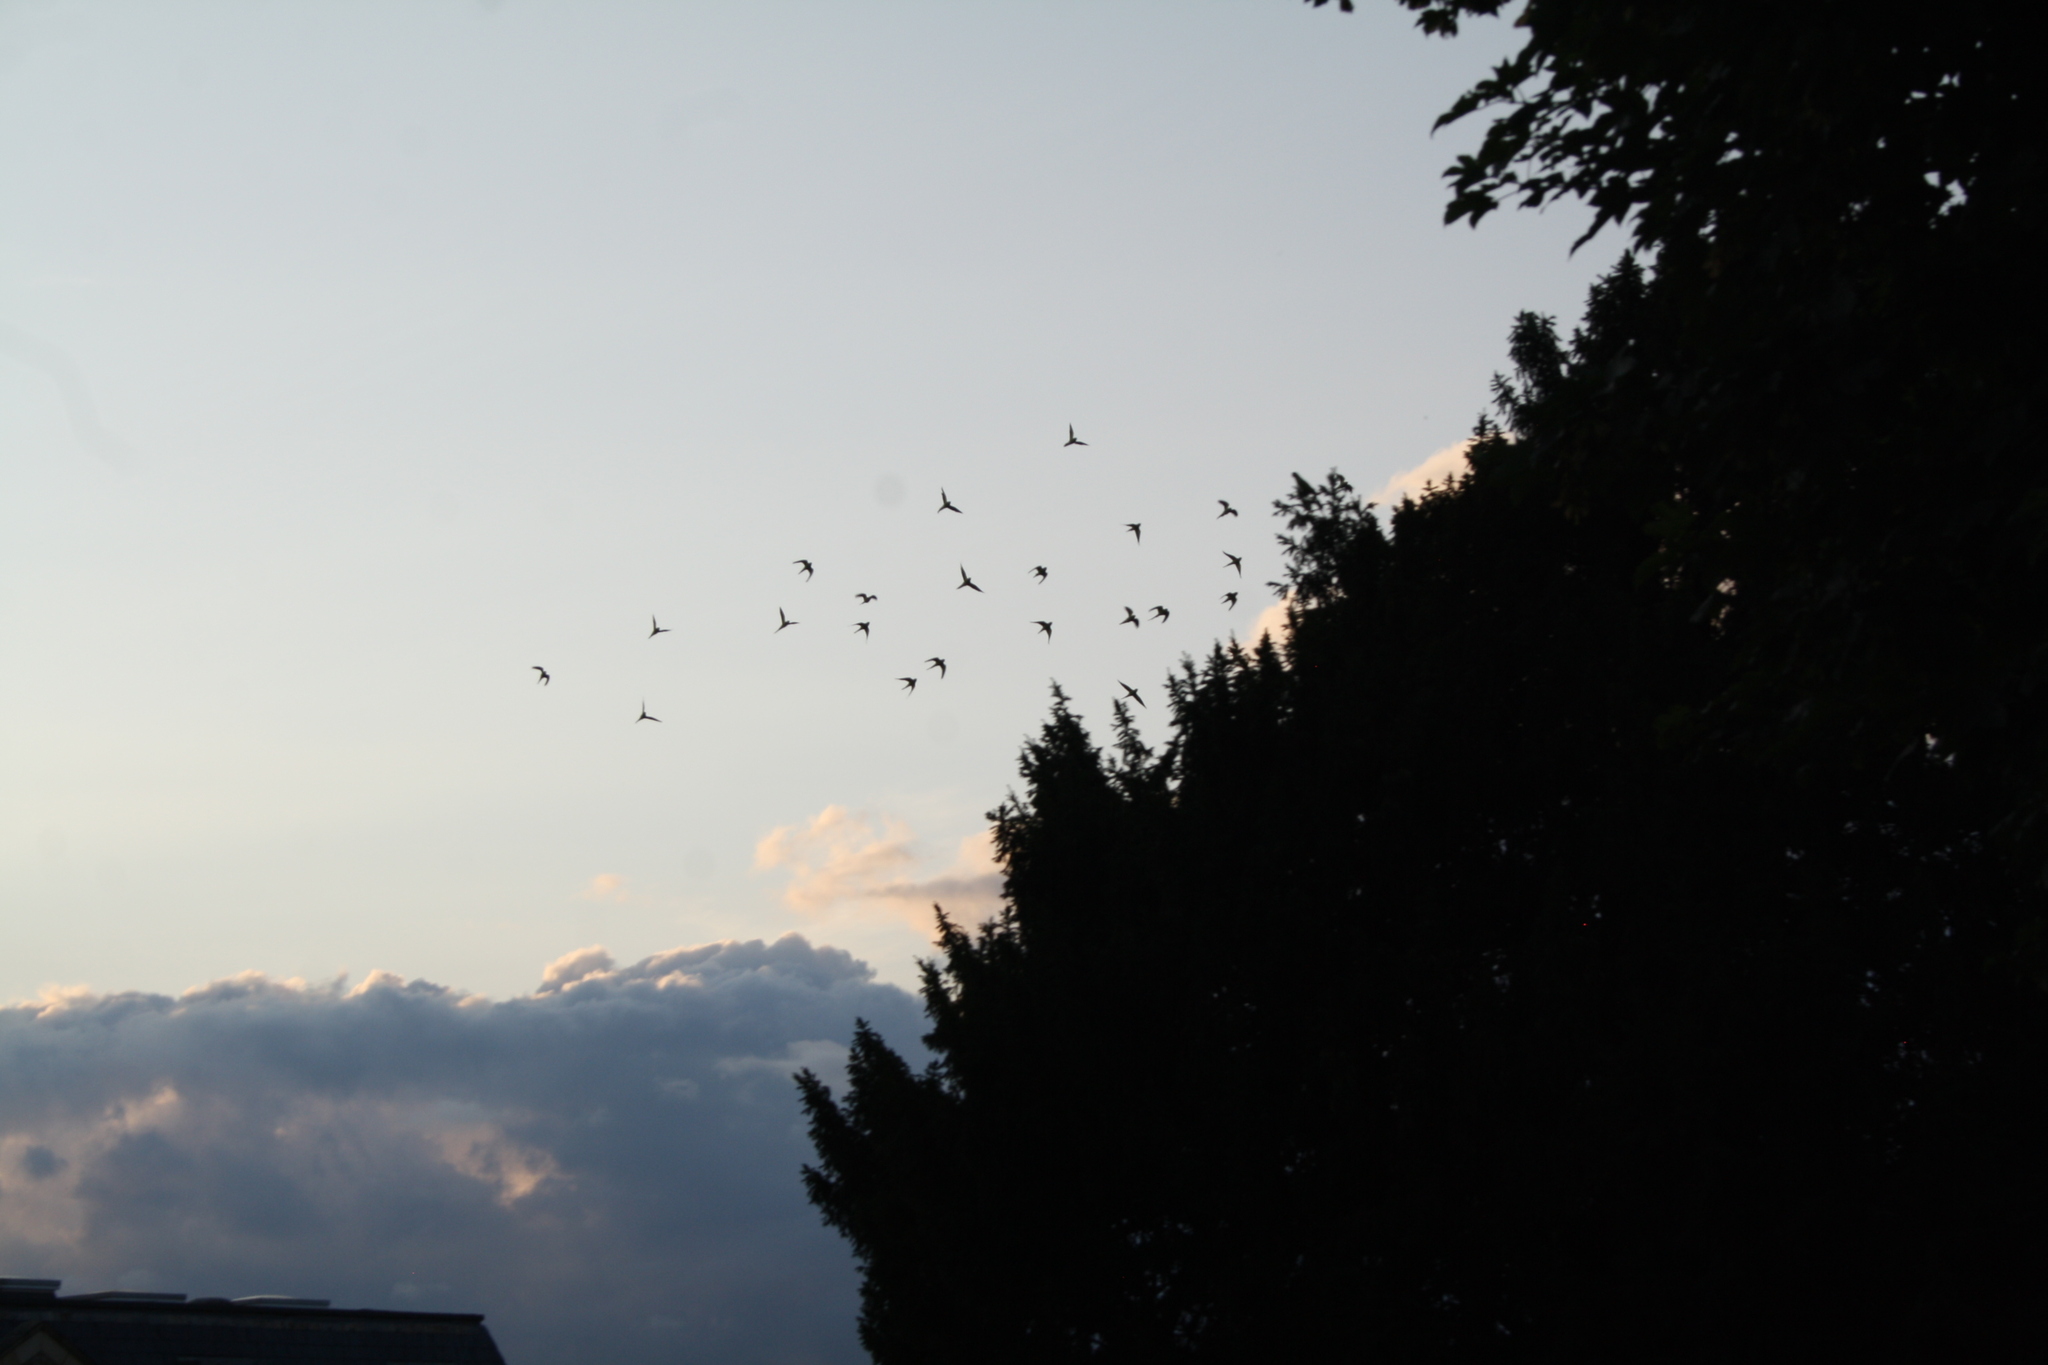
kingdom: Animalia
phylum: Chordata
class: Aves
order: Psittaciformes
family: Psittacidae
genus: Psittacula
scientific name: Psittacula krameri
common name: Rose-ringed parakeet
